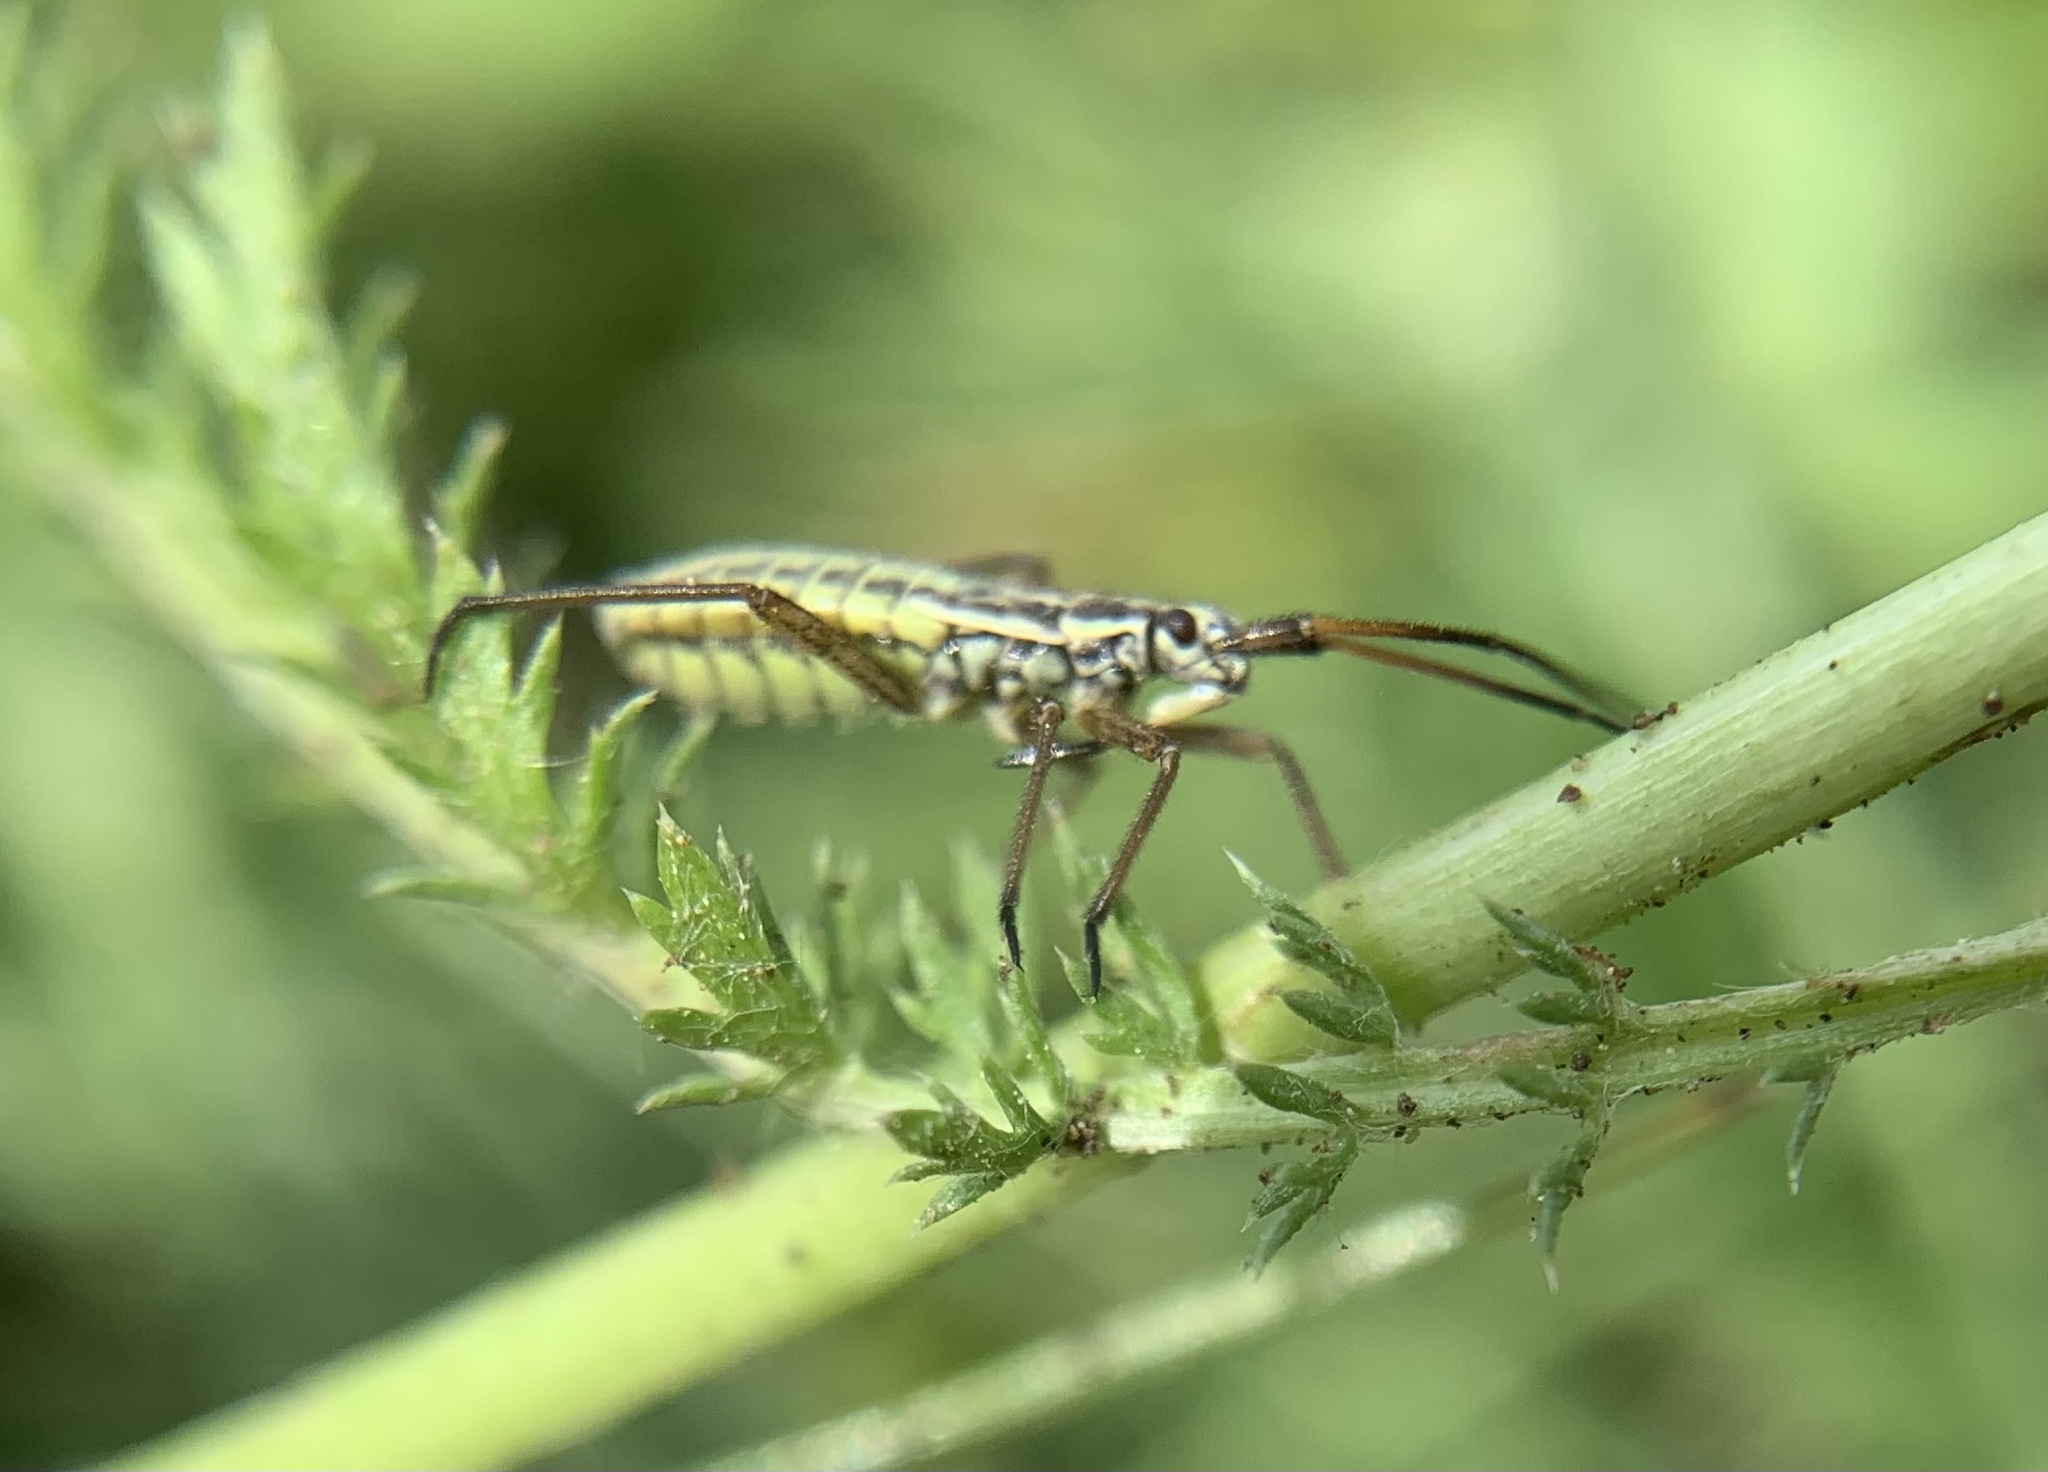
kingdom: Animalia
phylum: Arthropoda
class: Insecta
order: Hemiptera
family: Miridae
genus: Leptopterna
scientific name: Leptopterna dolabrata
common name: Meadow plant bug
